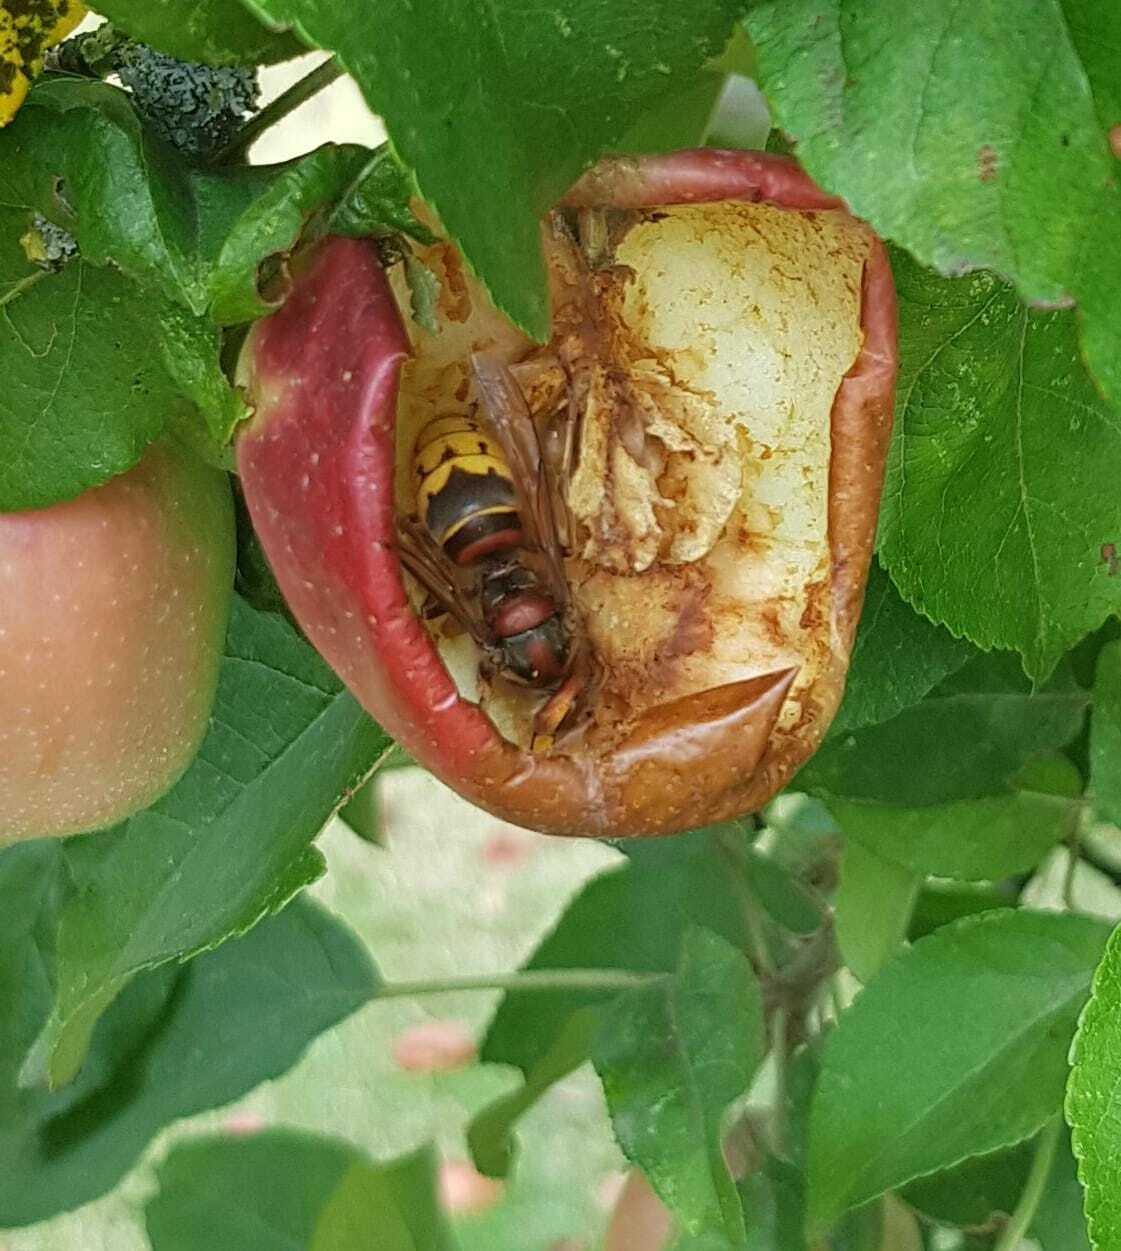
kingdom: Animalia
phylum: Arthropoda
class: Insecta
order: Hymenoptera
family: Vespidae
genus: Vespa
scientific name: Vespa crabro
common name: Hornet
